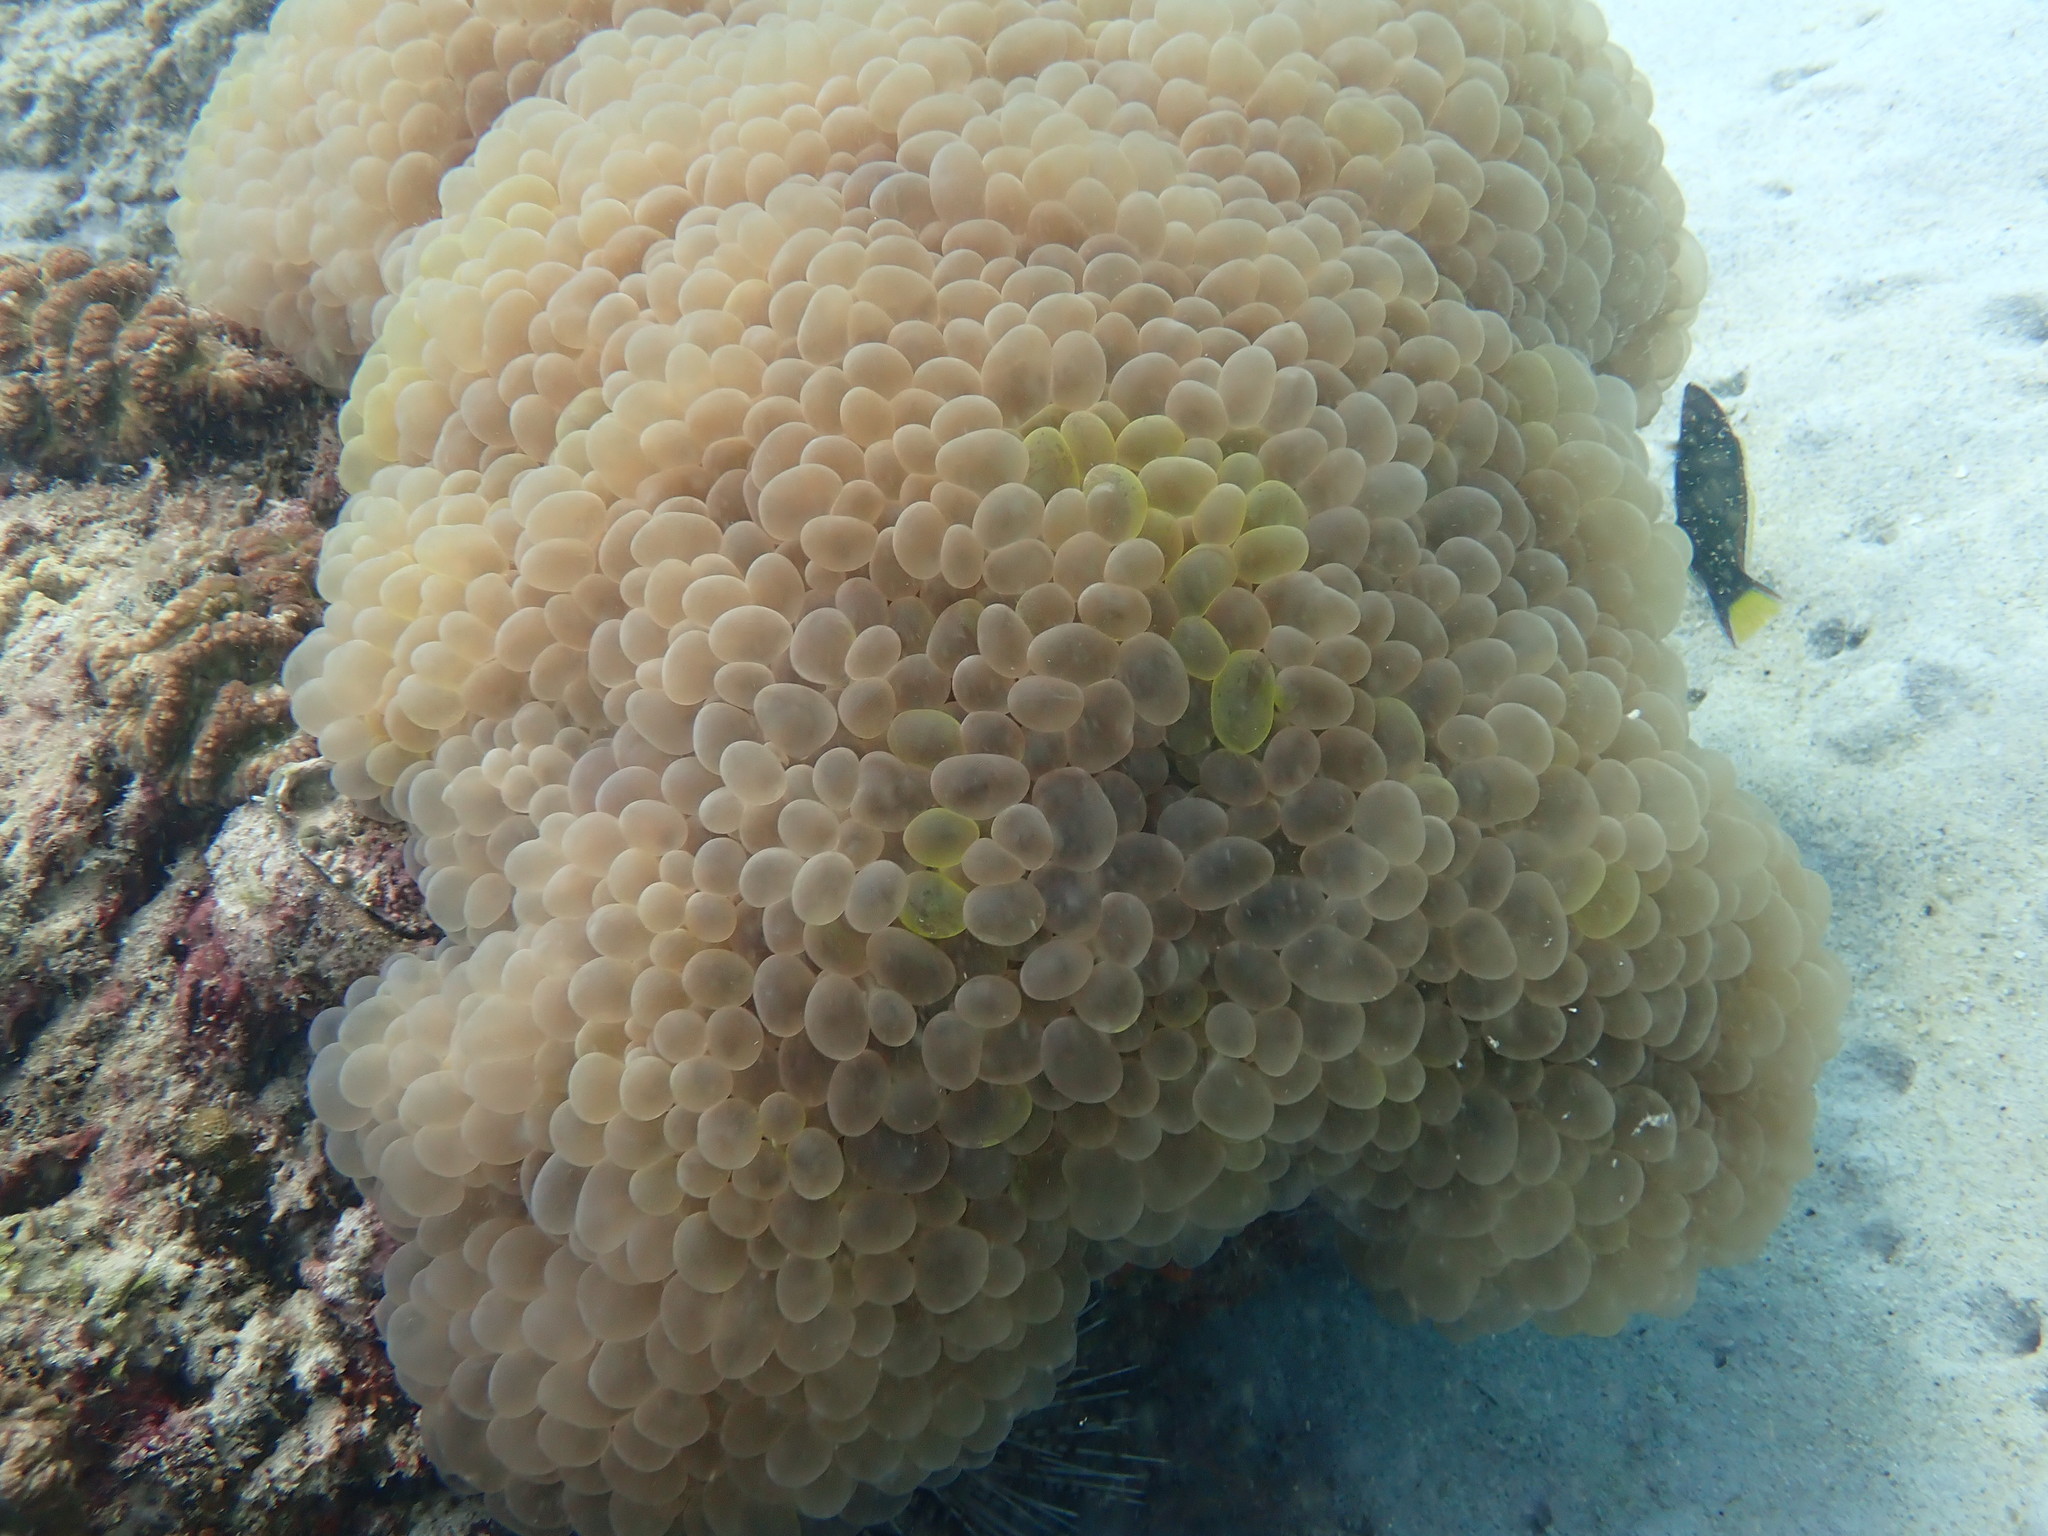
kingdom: Animalia
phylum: Cnidaria
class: Anthozoa
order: Scleractinia
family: Plerogyridae
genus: Plerogyra
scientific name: Plerogyra sinuosa
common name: Bubble coral
